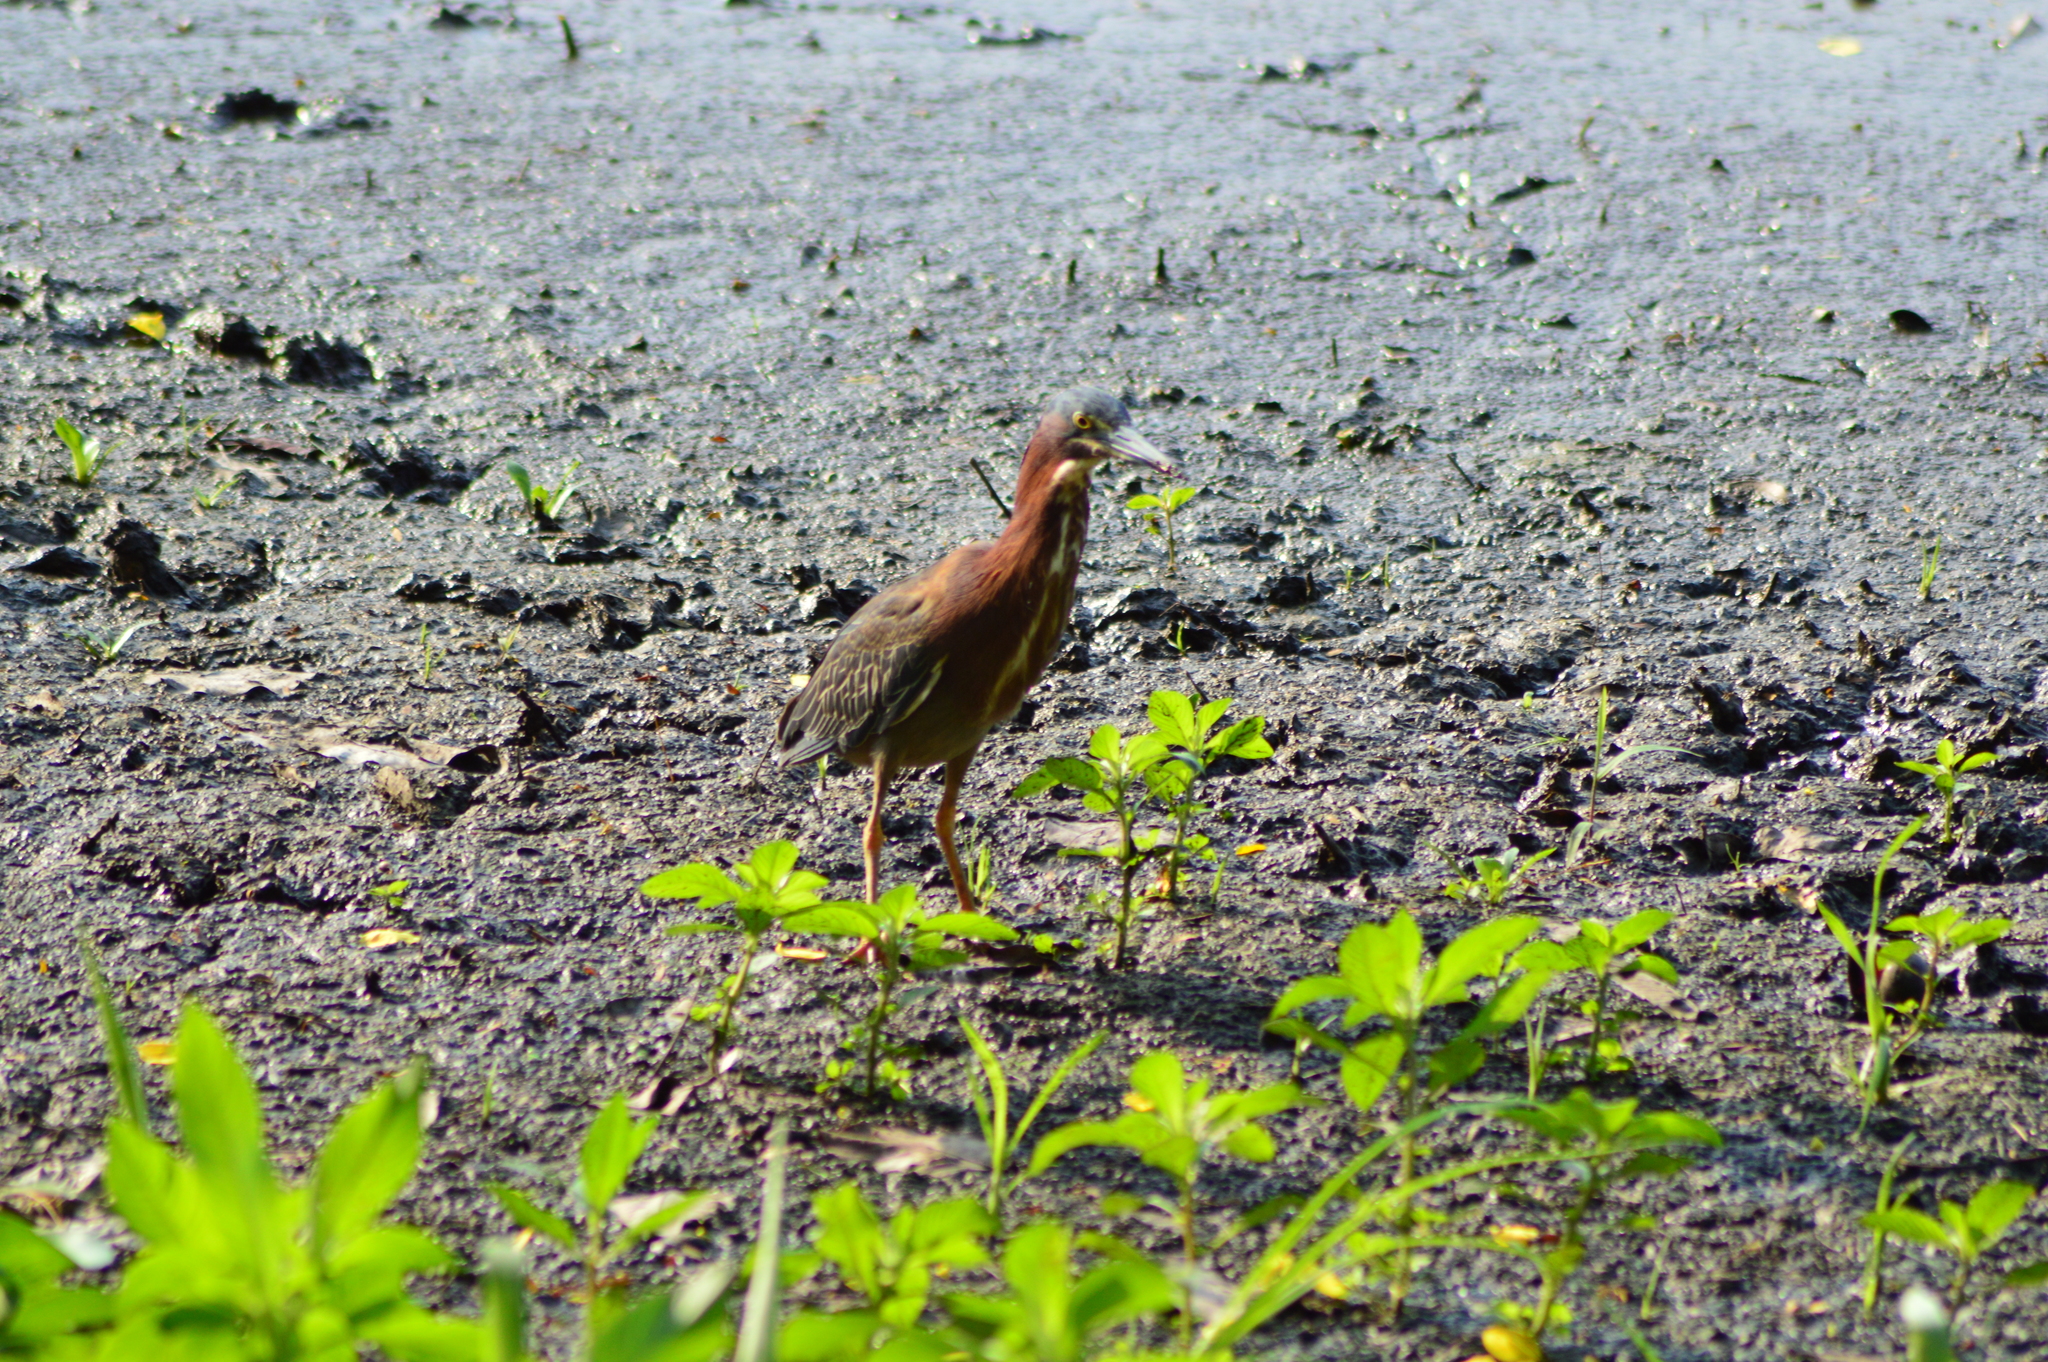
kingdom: Animalia
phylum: Chordata
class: Aves
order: Pelecaniformes
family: Ardeidae
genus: Butorides
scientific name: Butorides virescens
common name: Green heron
